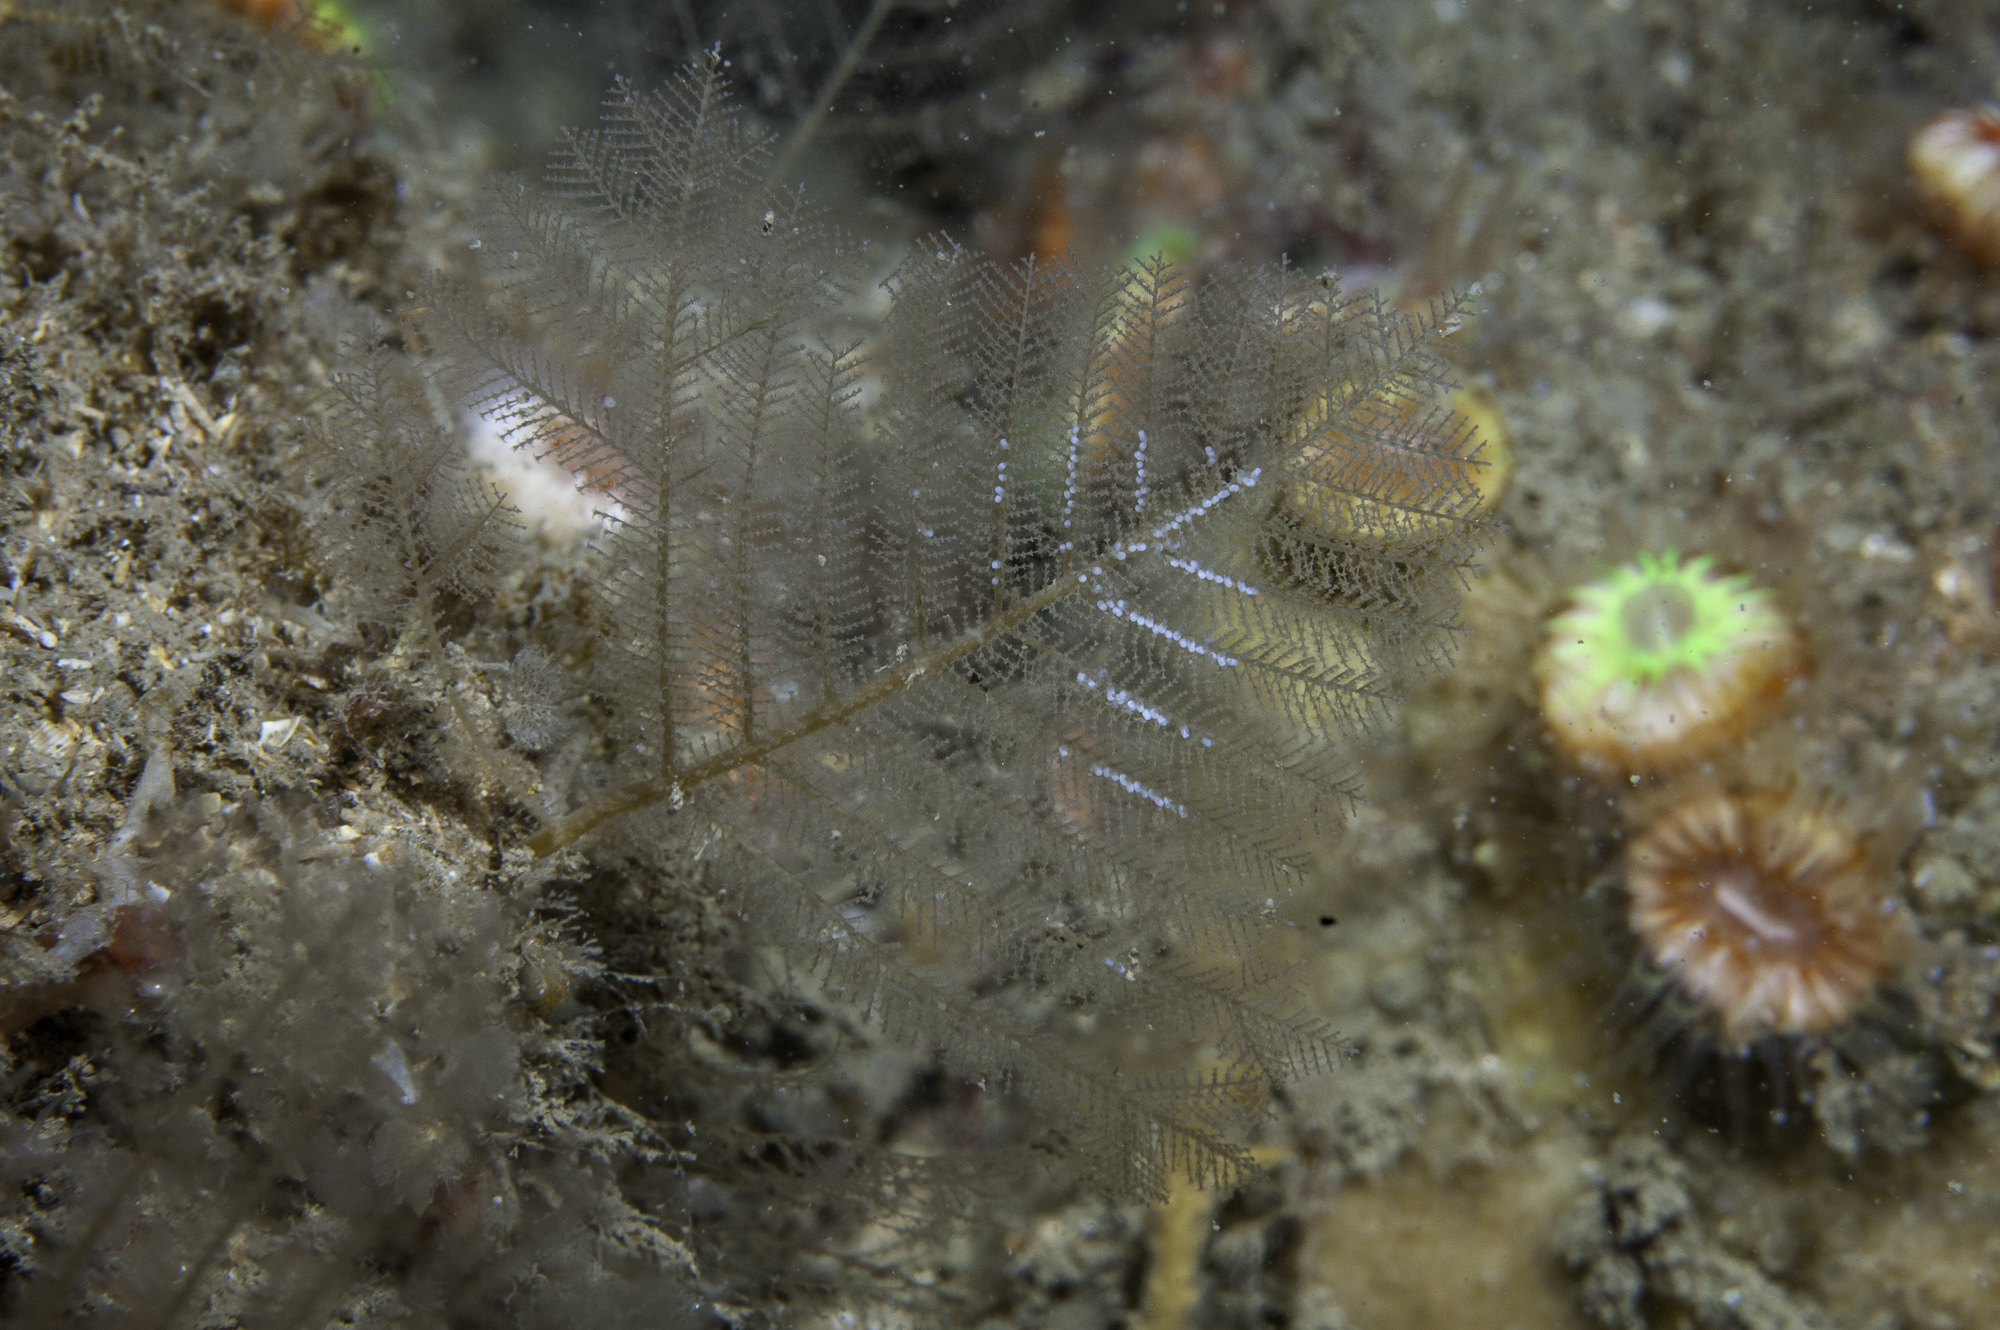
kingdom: Animalia
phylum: Cnidaria
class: Hydrozoa
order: Leptothecata
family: Halopterididae
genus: Polyplumaria
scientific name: Polyplumaria flabellata
